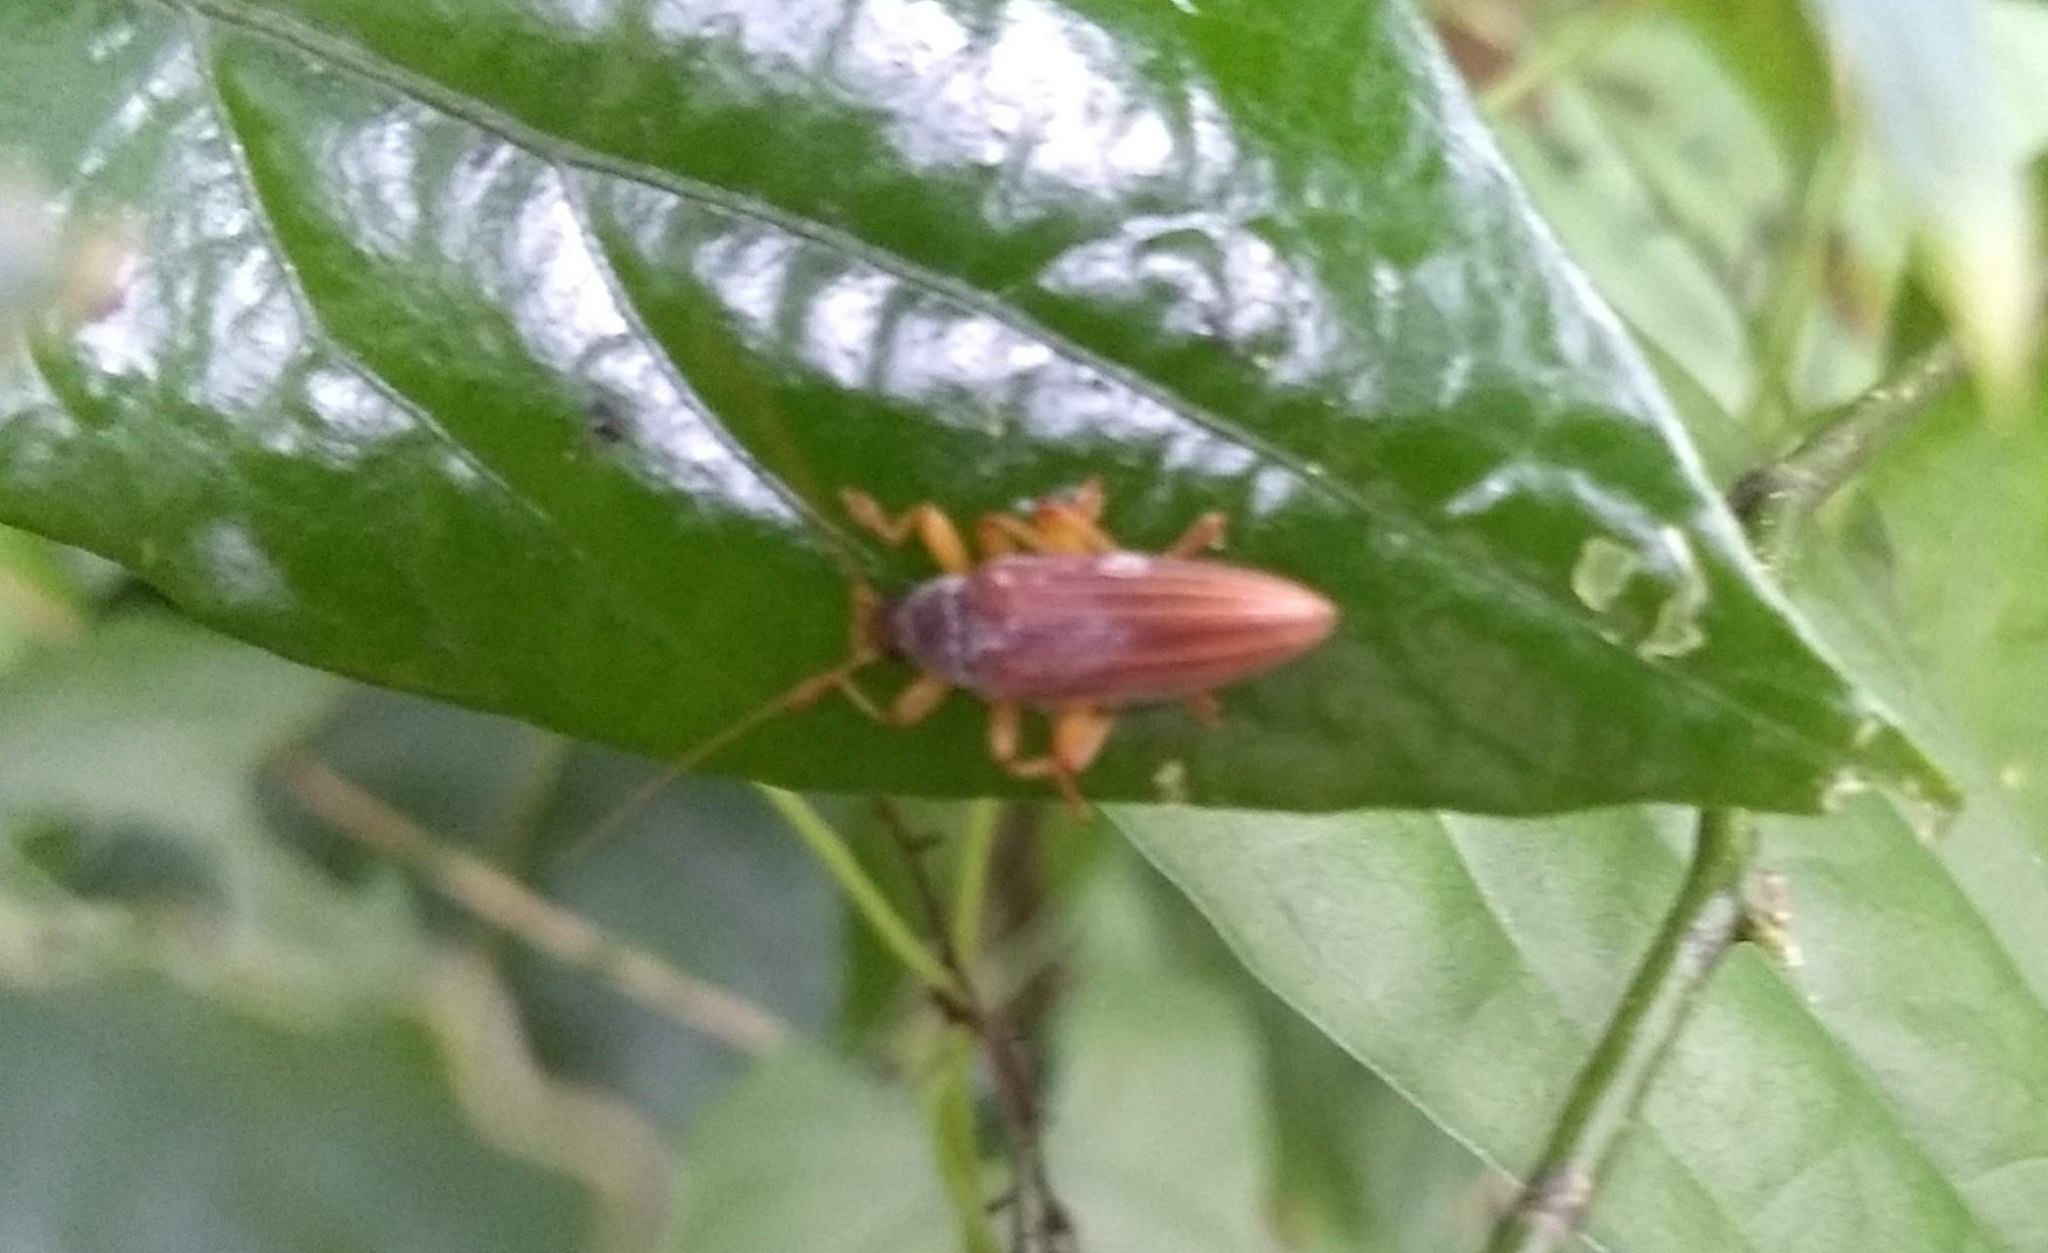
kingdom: Animalia
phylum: Arthropoda
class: Insecta
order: Coleoptera
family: Tenebrionidae
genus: Asticostena
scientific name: Asticostena
